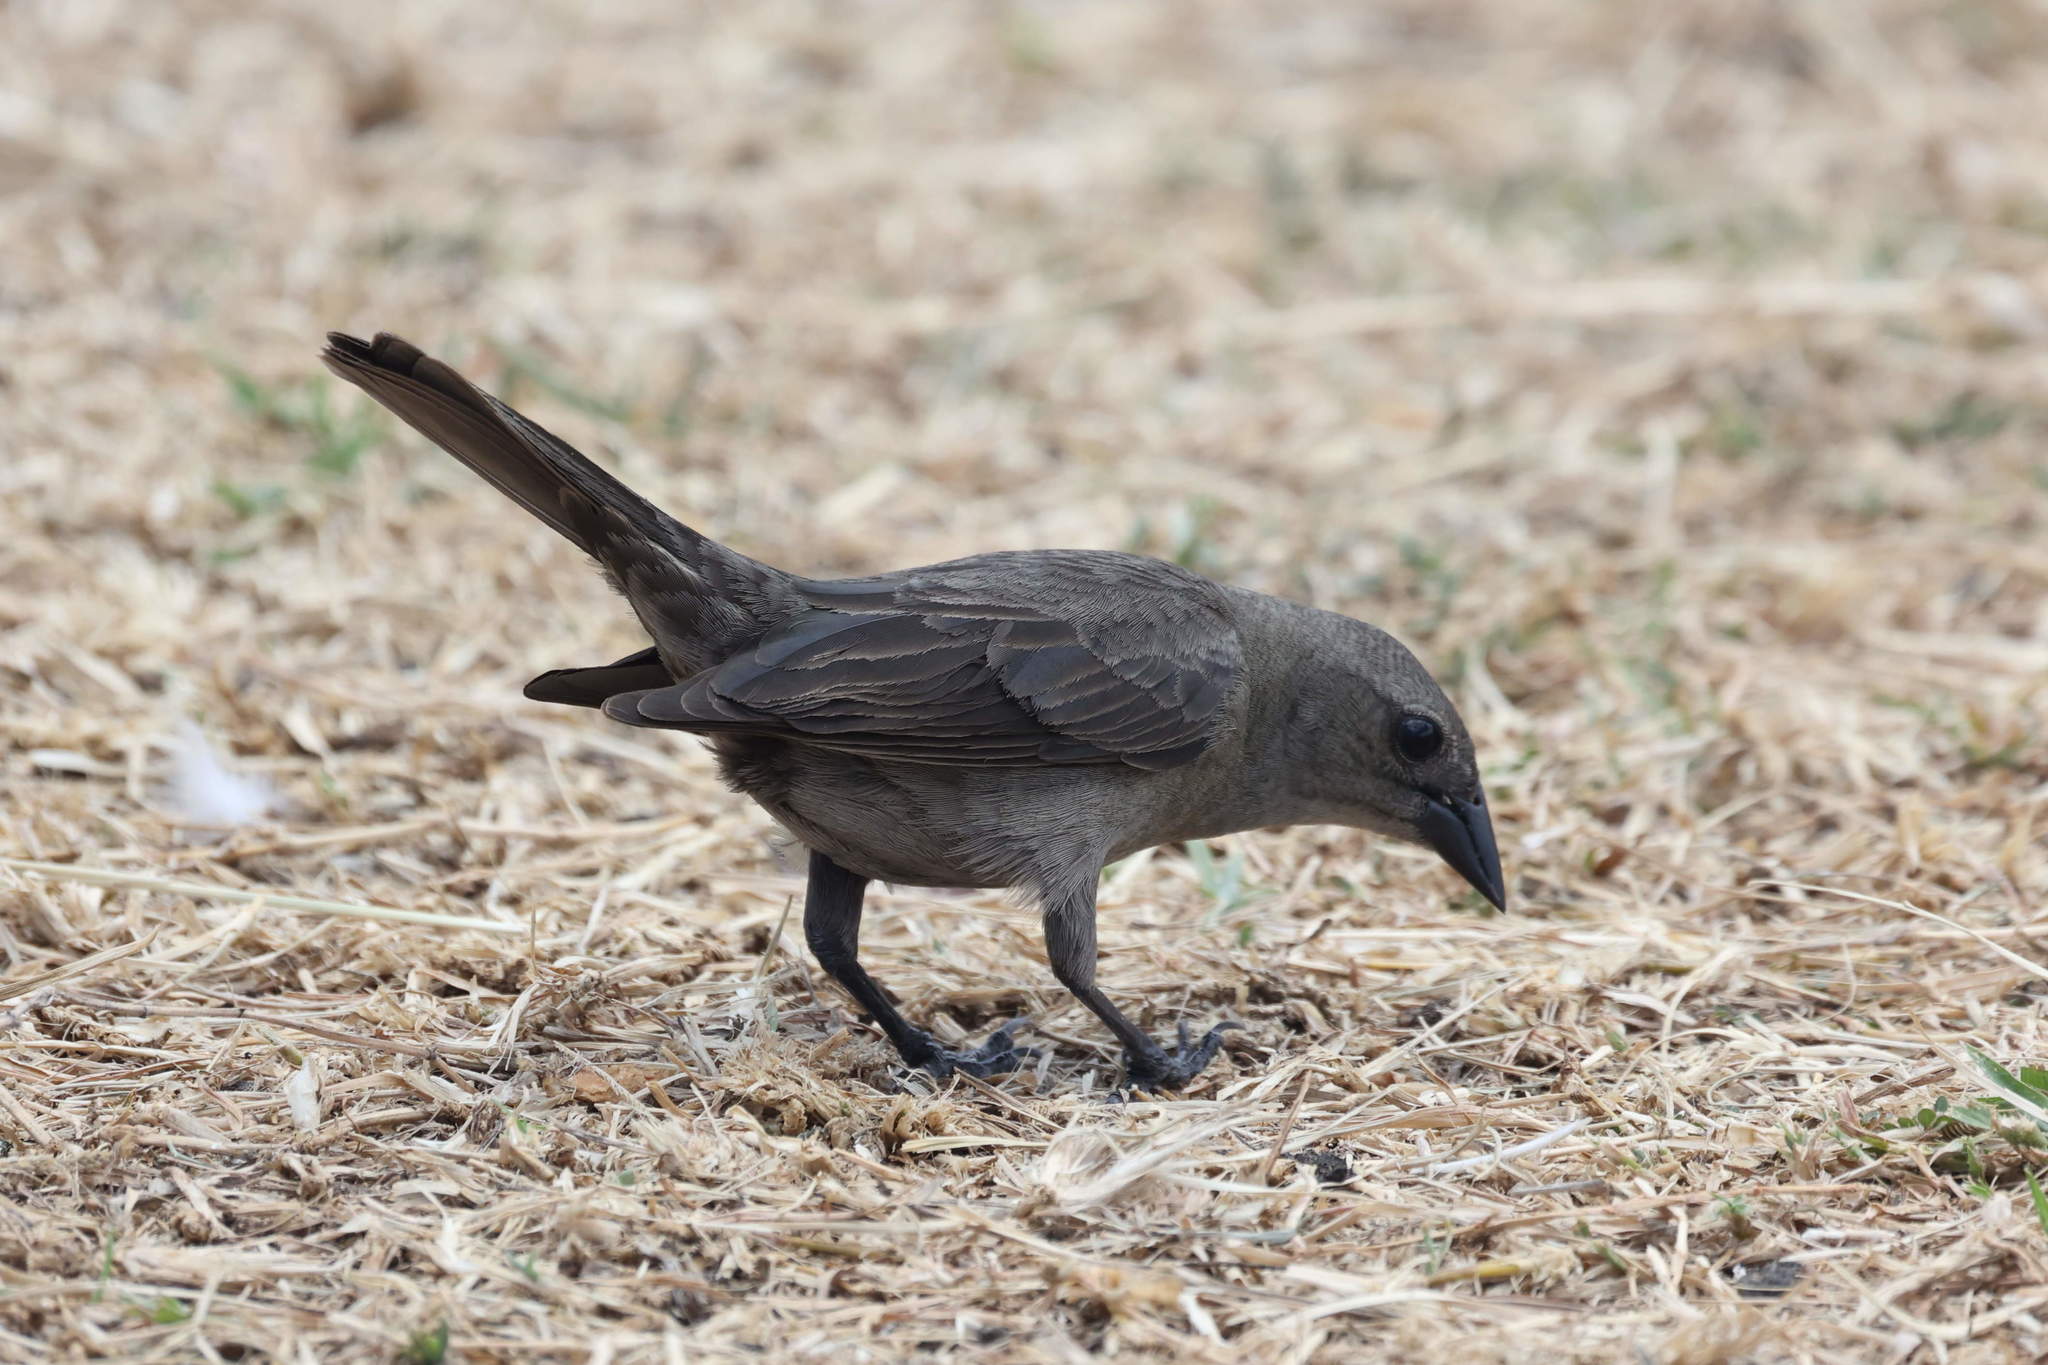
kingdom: Animalia
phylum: Chordata
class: Aves
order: Passeriformes
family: Icteridae
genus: Molothrus
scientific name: Molothrus bonariensis
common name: Shiny cowbird
